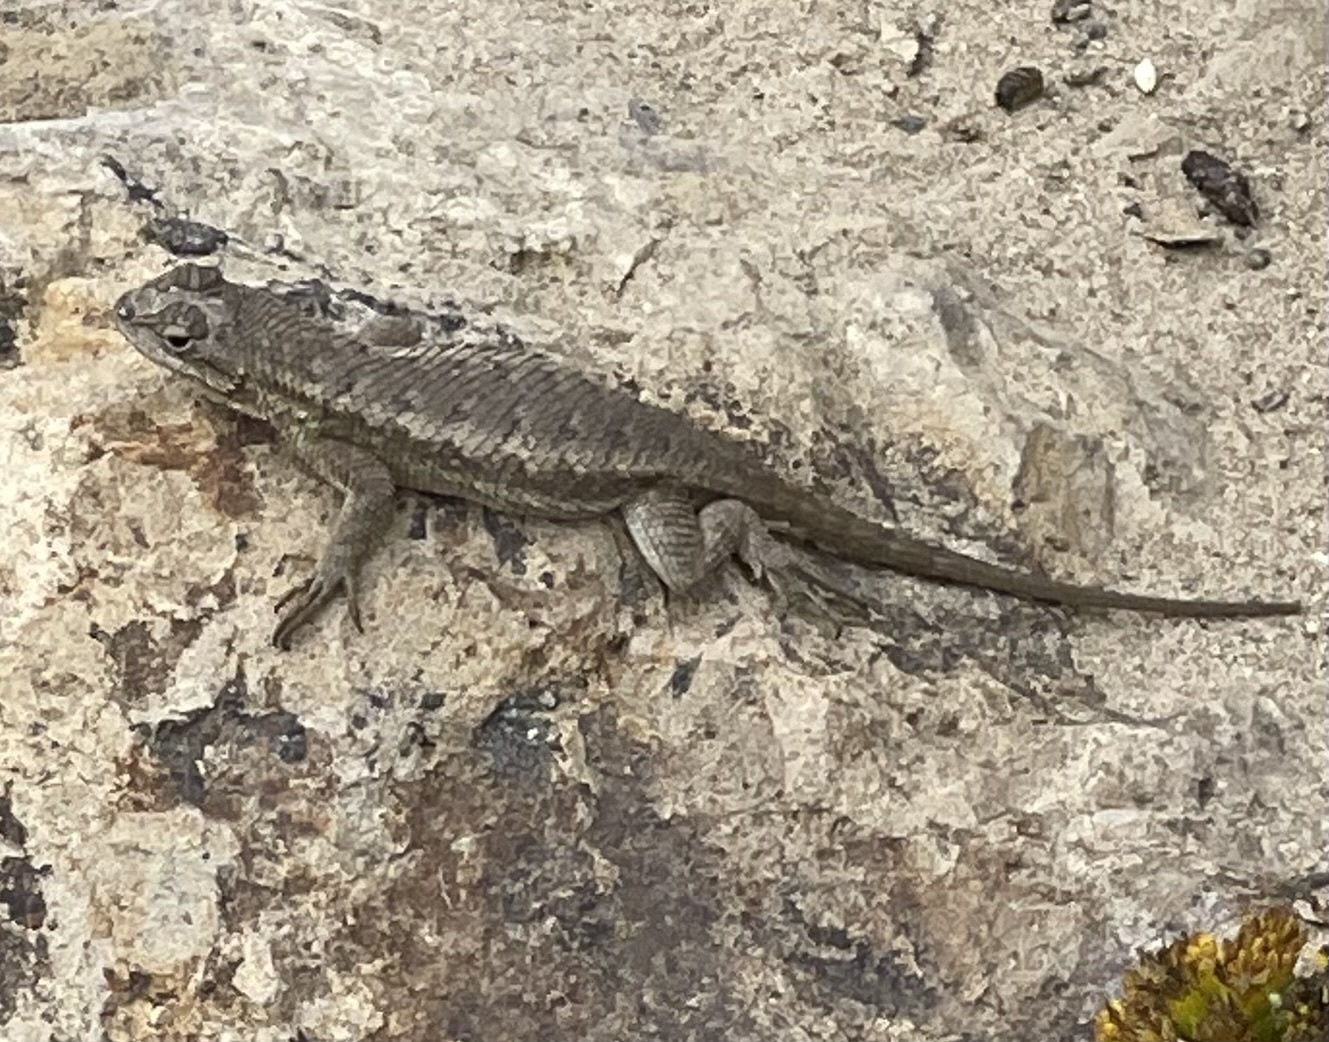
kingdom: Animalia
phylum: Chordata
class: Squamata
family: Phrynosomatidae
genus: Sceloporus
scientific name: Sceloporus occidentalis
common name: Western fence lizard
